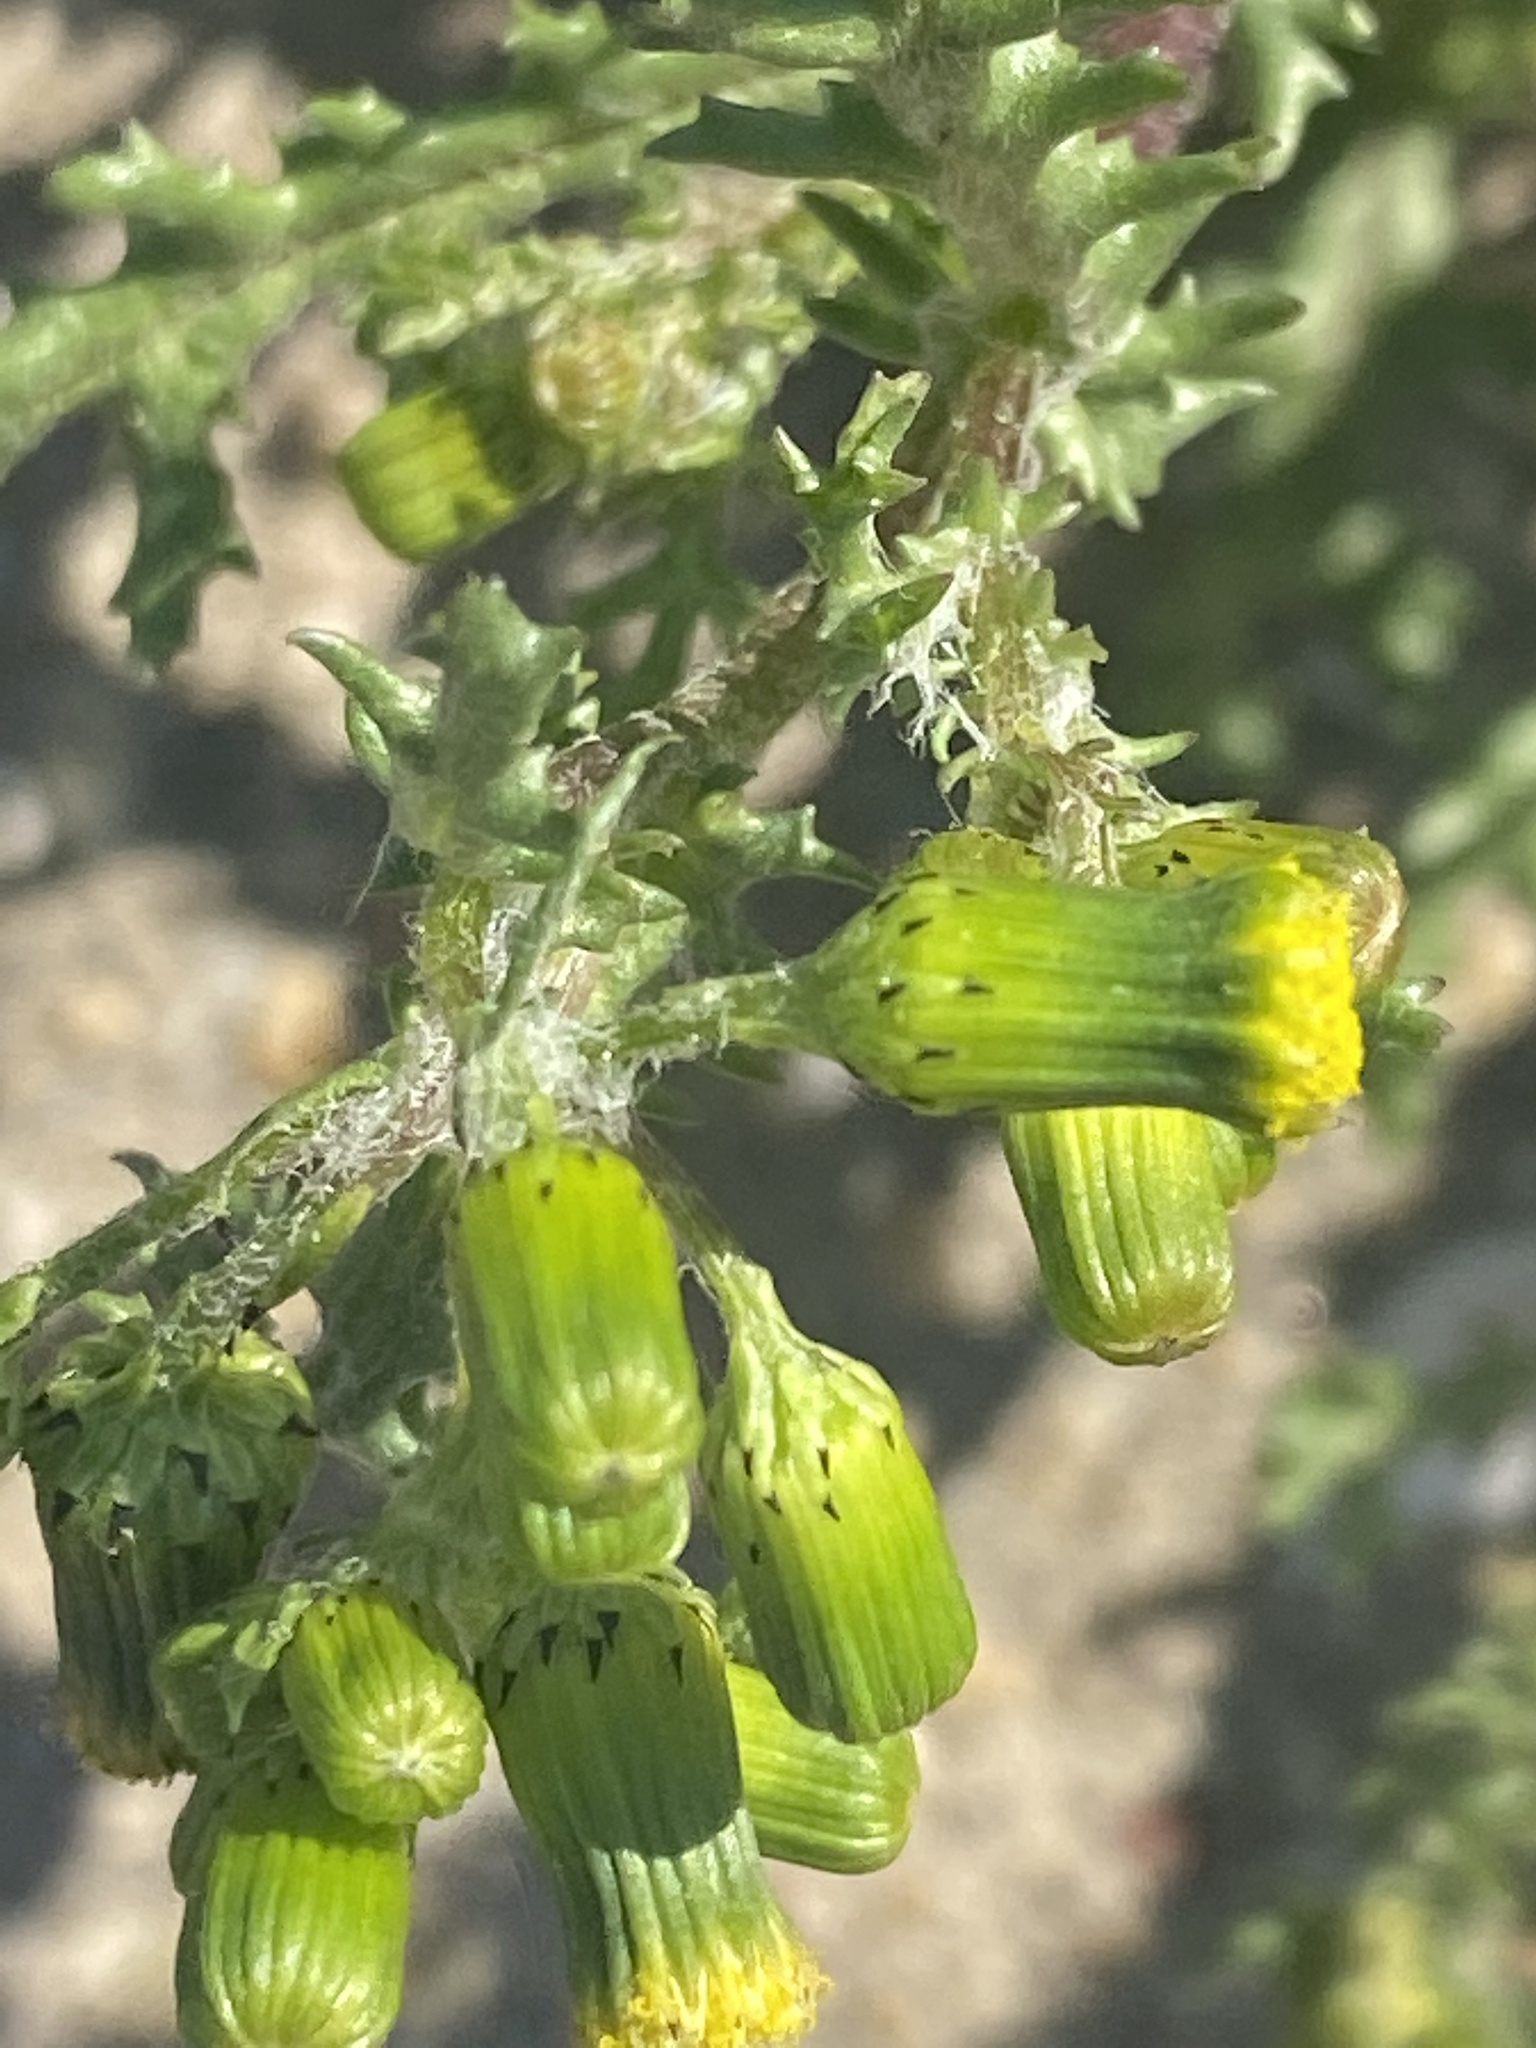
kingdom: Plantae
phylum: Tracheophyta
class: Magnoliopsida
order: Asterales
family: Asteraceae
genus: Senecio
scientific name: Senecio vulgaris
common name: Old-man-in-the-spring
